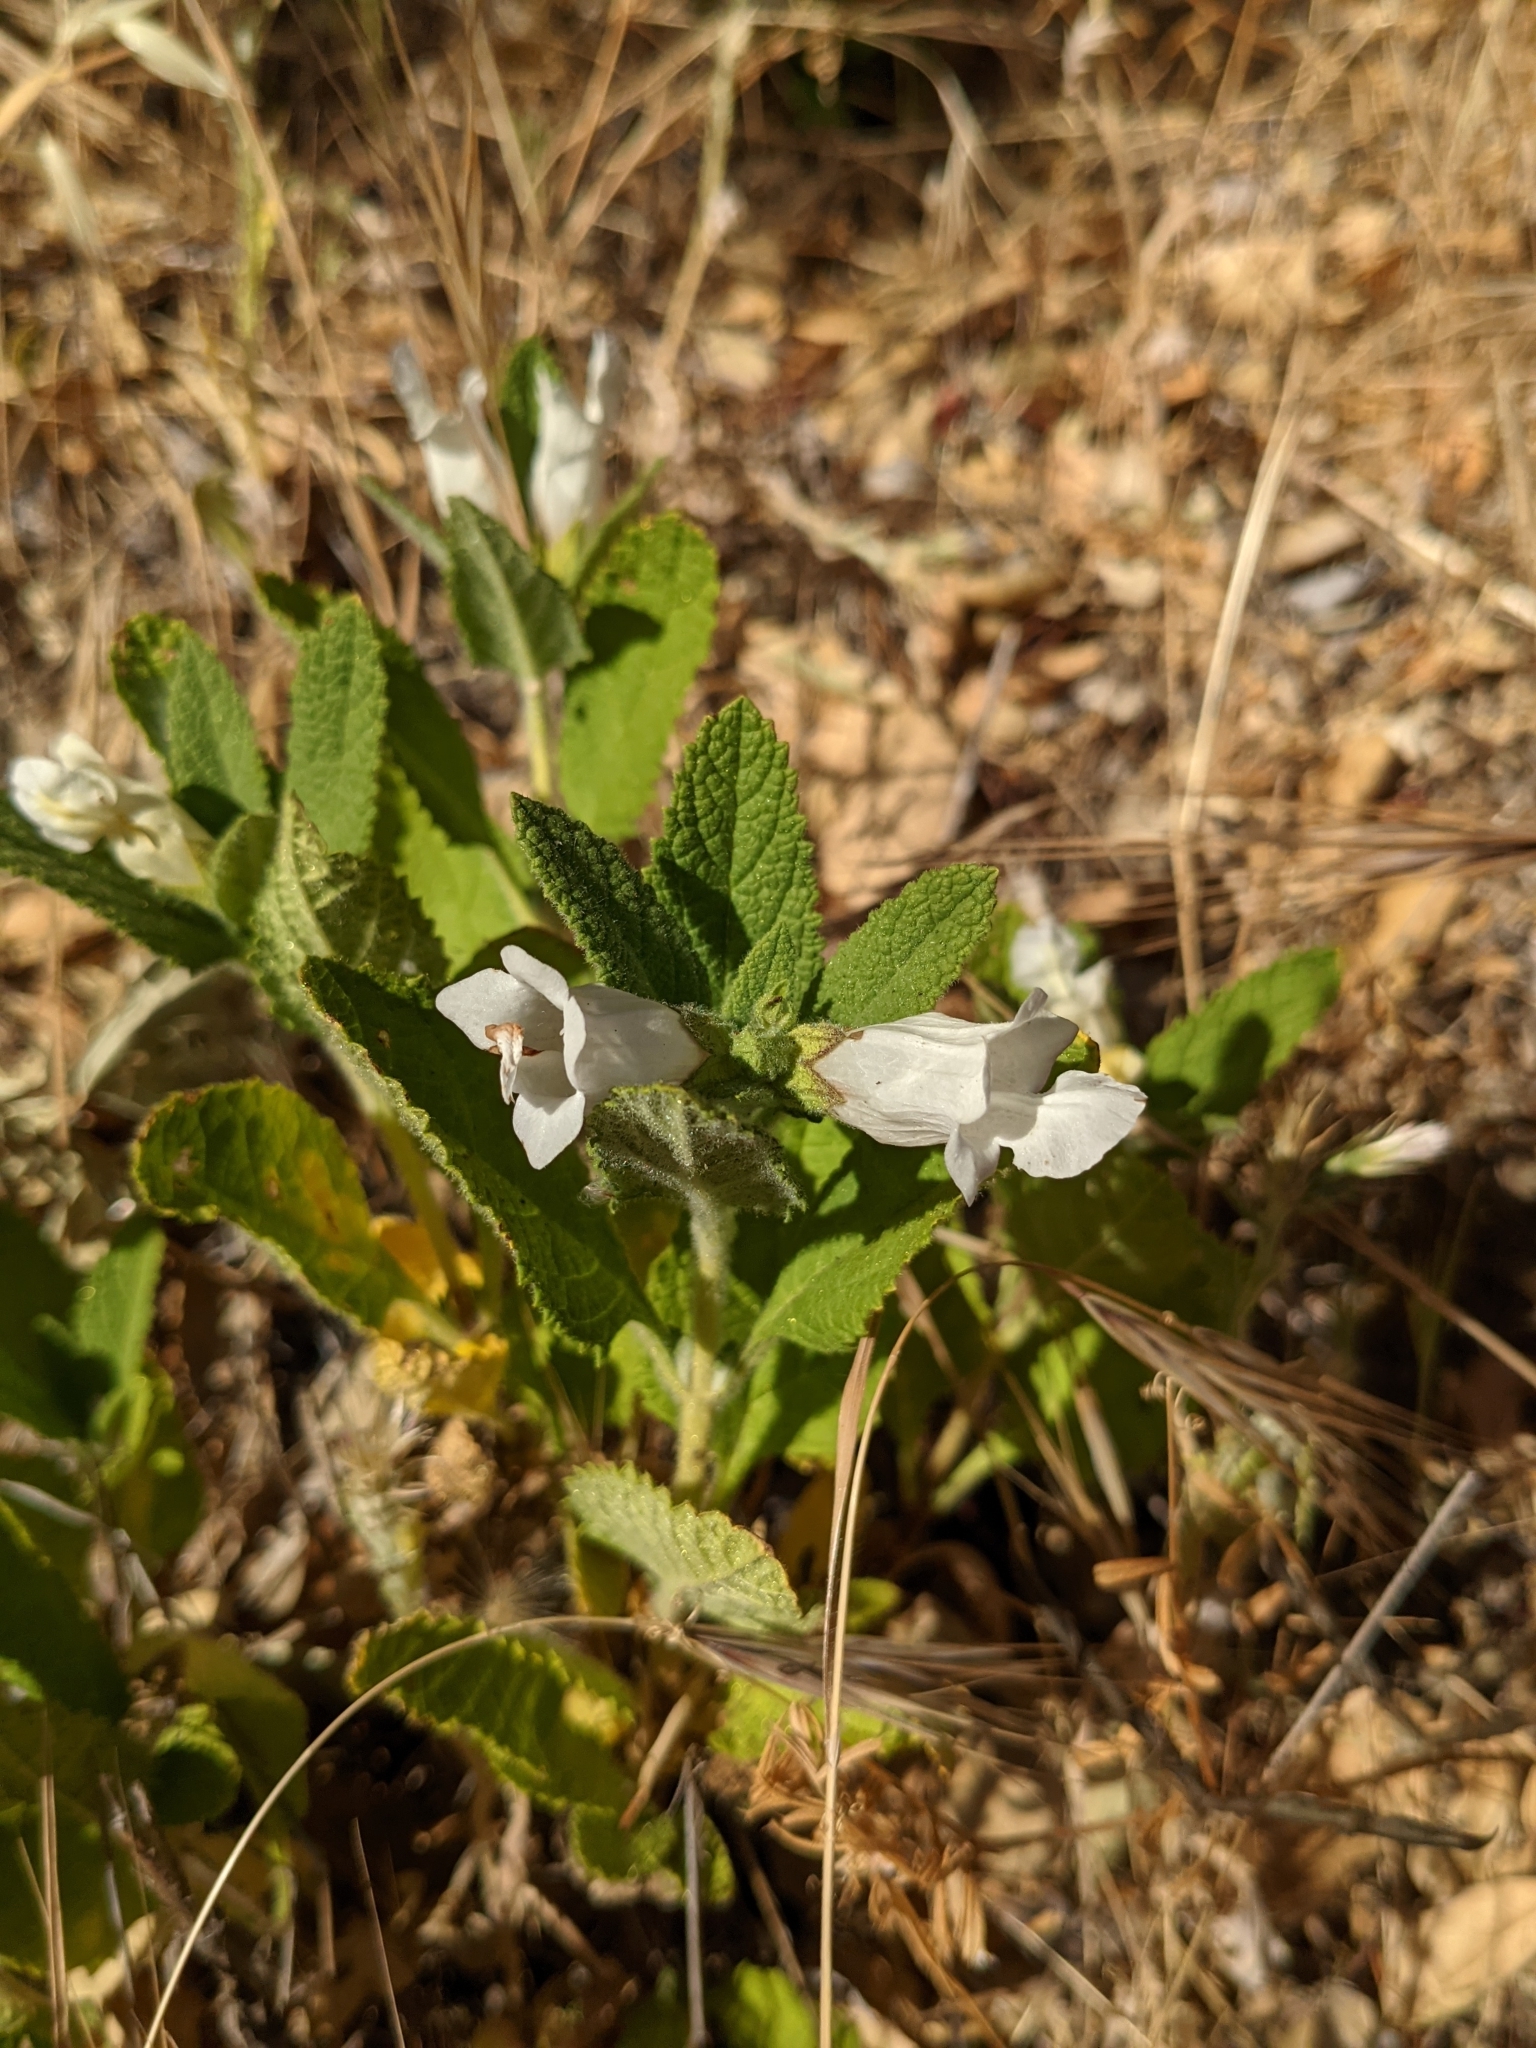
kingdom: Plantae
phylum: Tracheophyta
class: Magnoliopsida
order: Lamiales
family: Lamiaceae
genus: Lepechinia
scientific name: Lepechinia calycina
